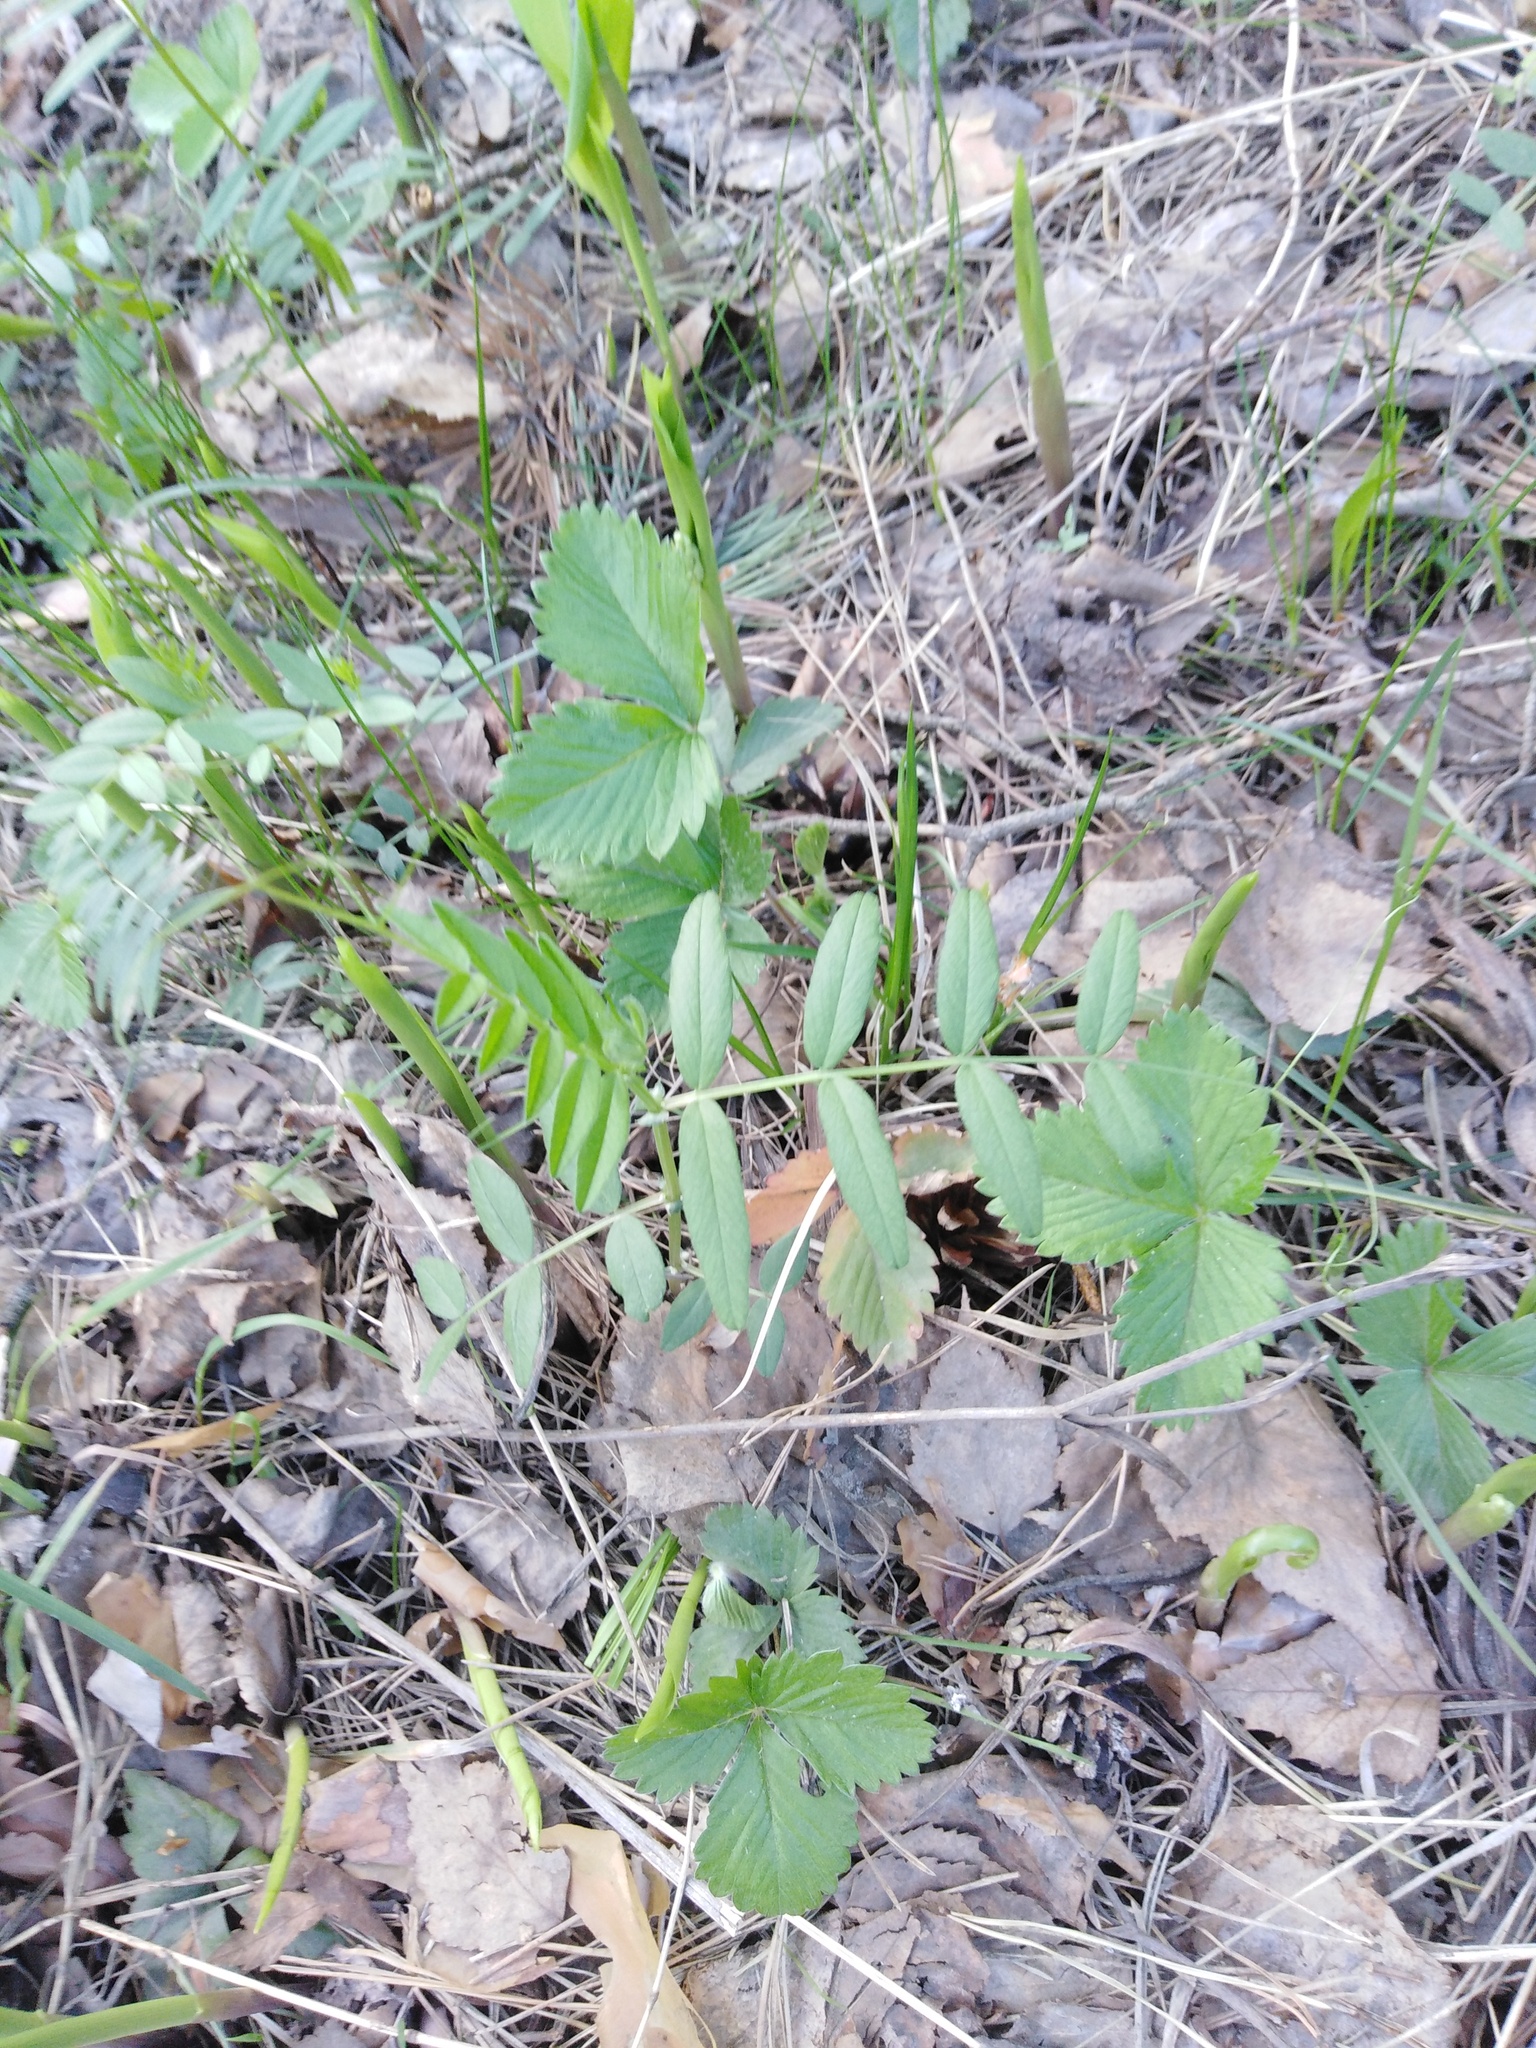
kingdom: Plantae
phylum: Tracheophyta
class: Magnoliopsida
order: Fabales
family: Fabaceae
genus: Vicia
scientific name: Vicia sepium
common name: Bush vetch
